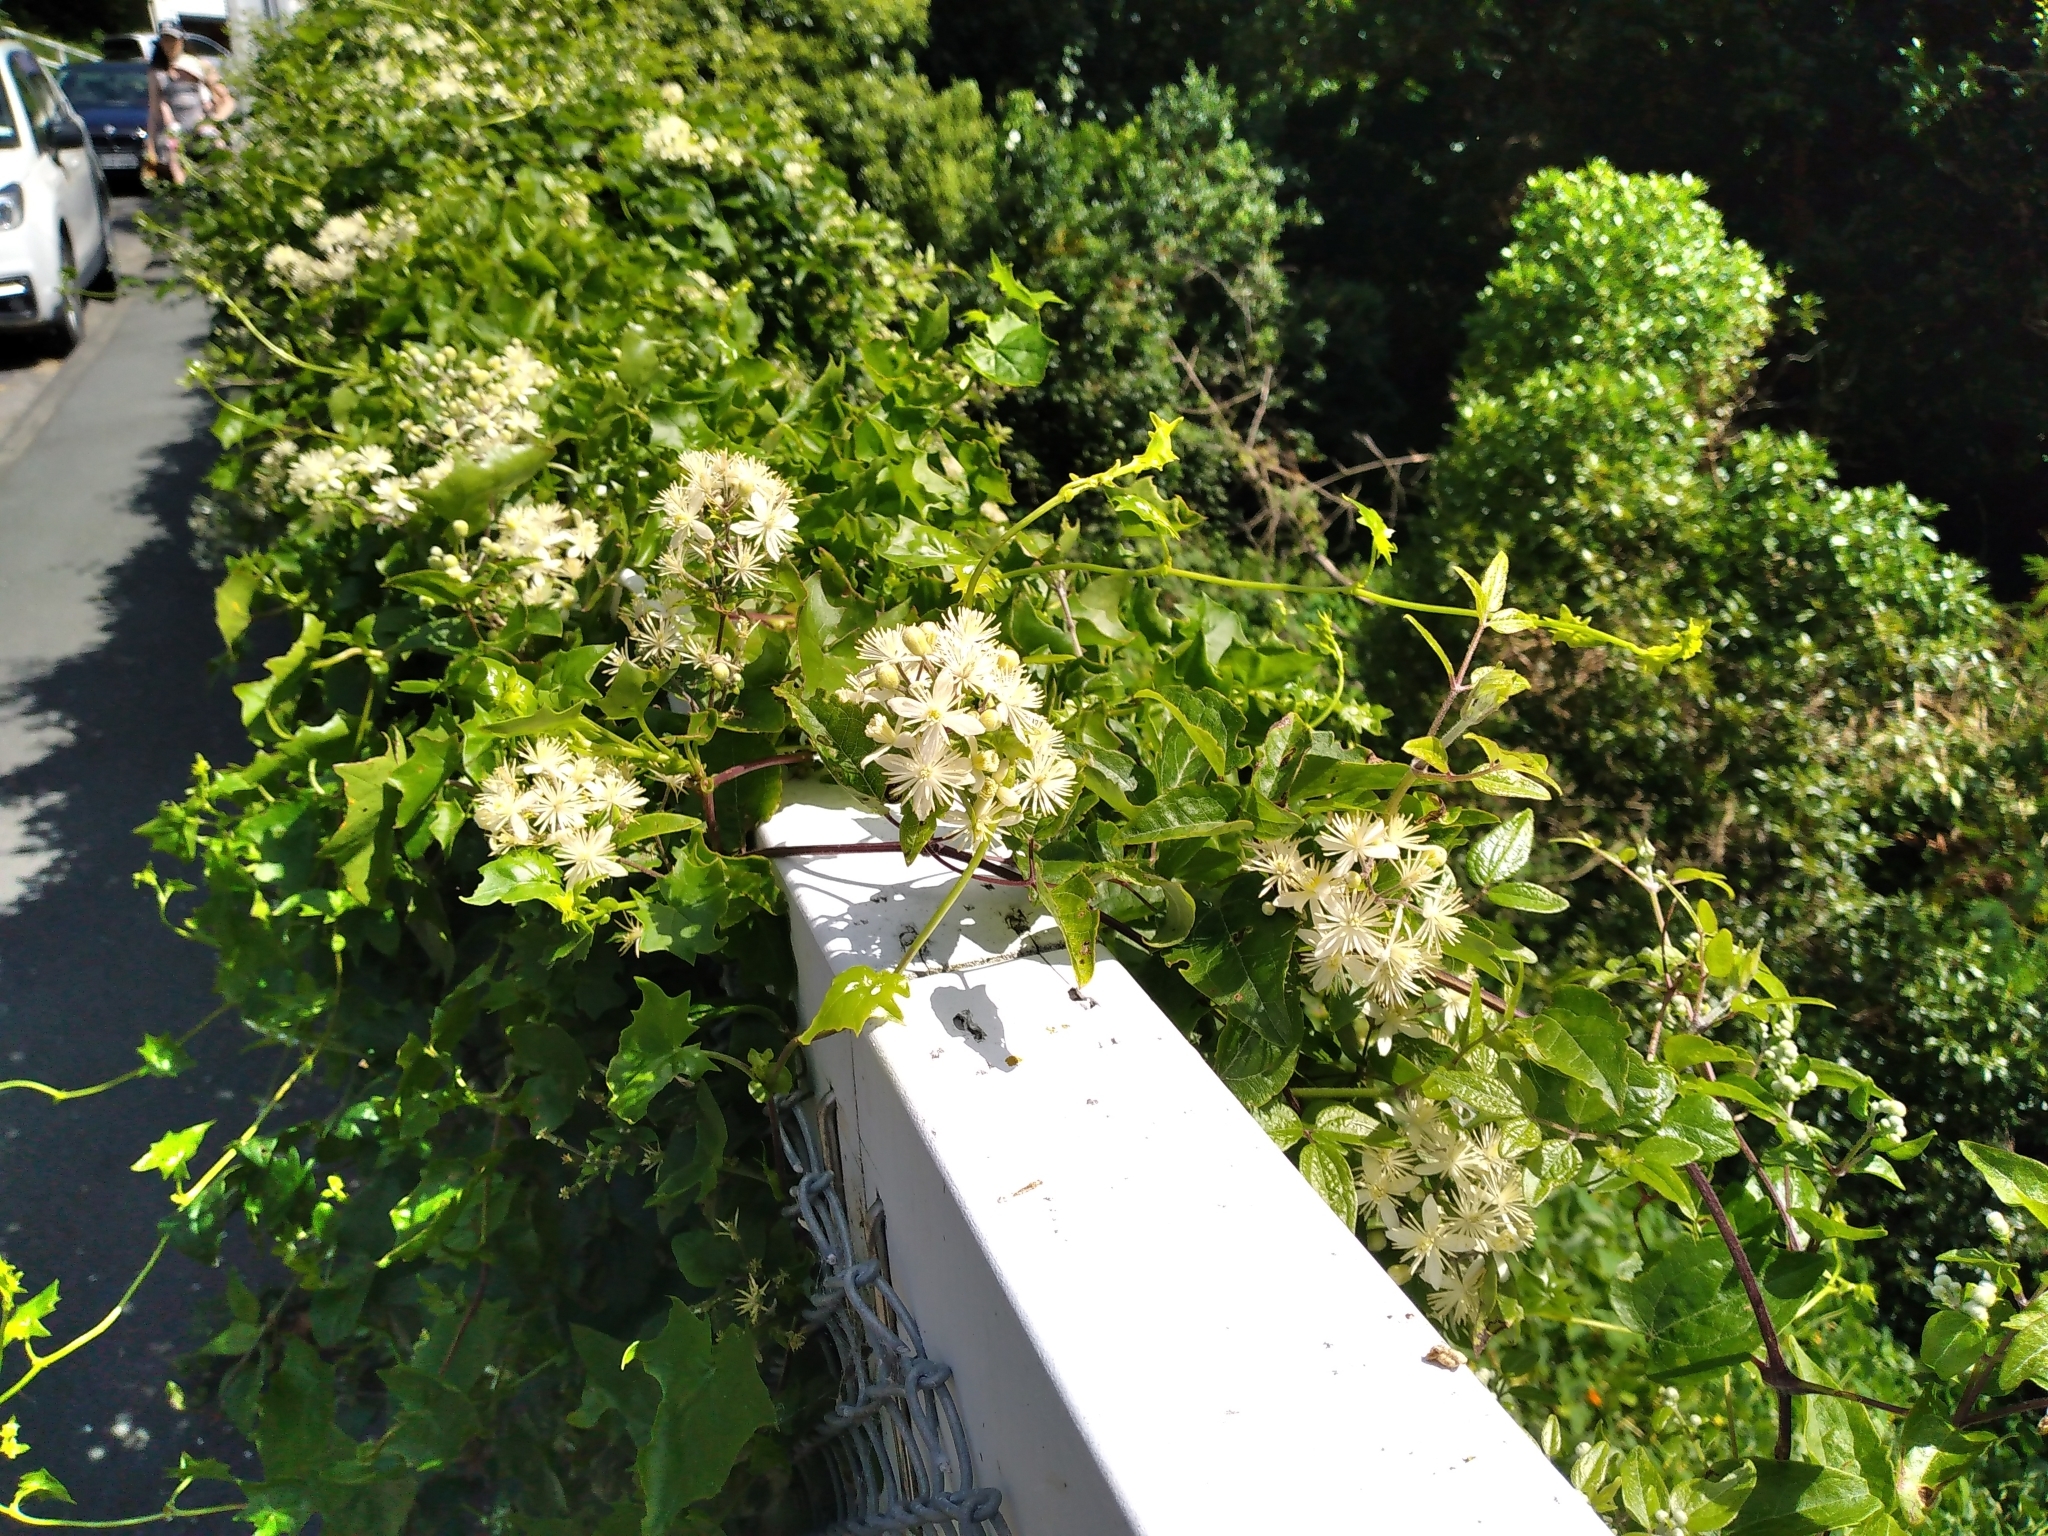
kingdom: Plantae
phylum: Tracheophyta
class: Magnoliopsida
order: Ranunculales
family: Ranunculaceae
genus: Clematis
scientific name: Clematis vitalba
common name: Evergreen clematis
